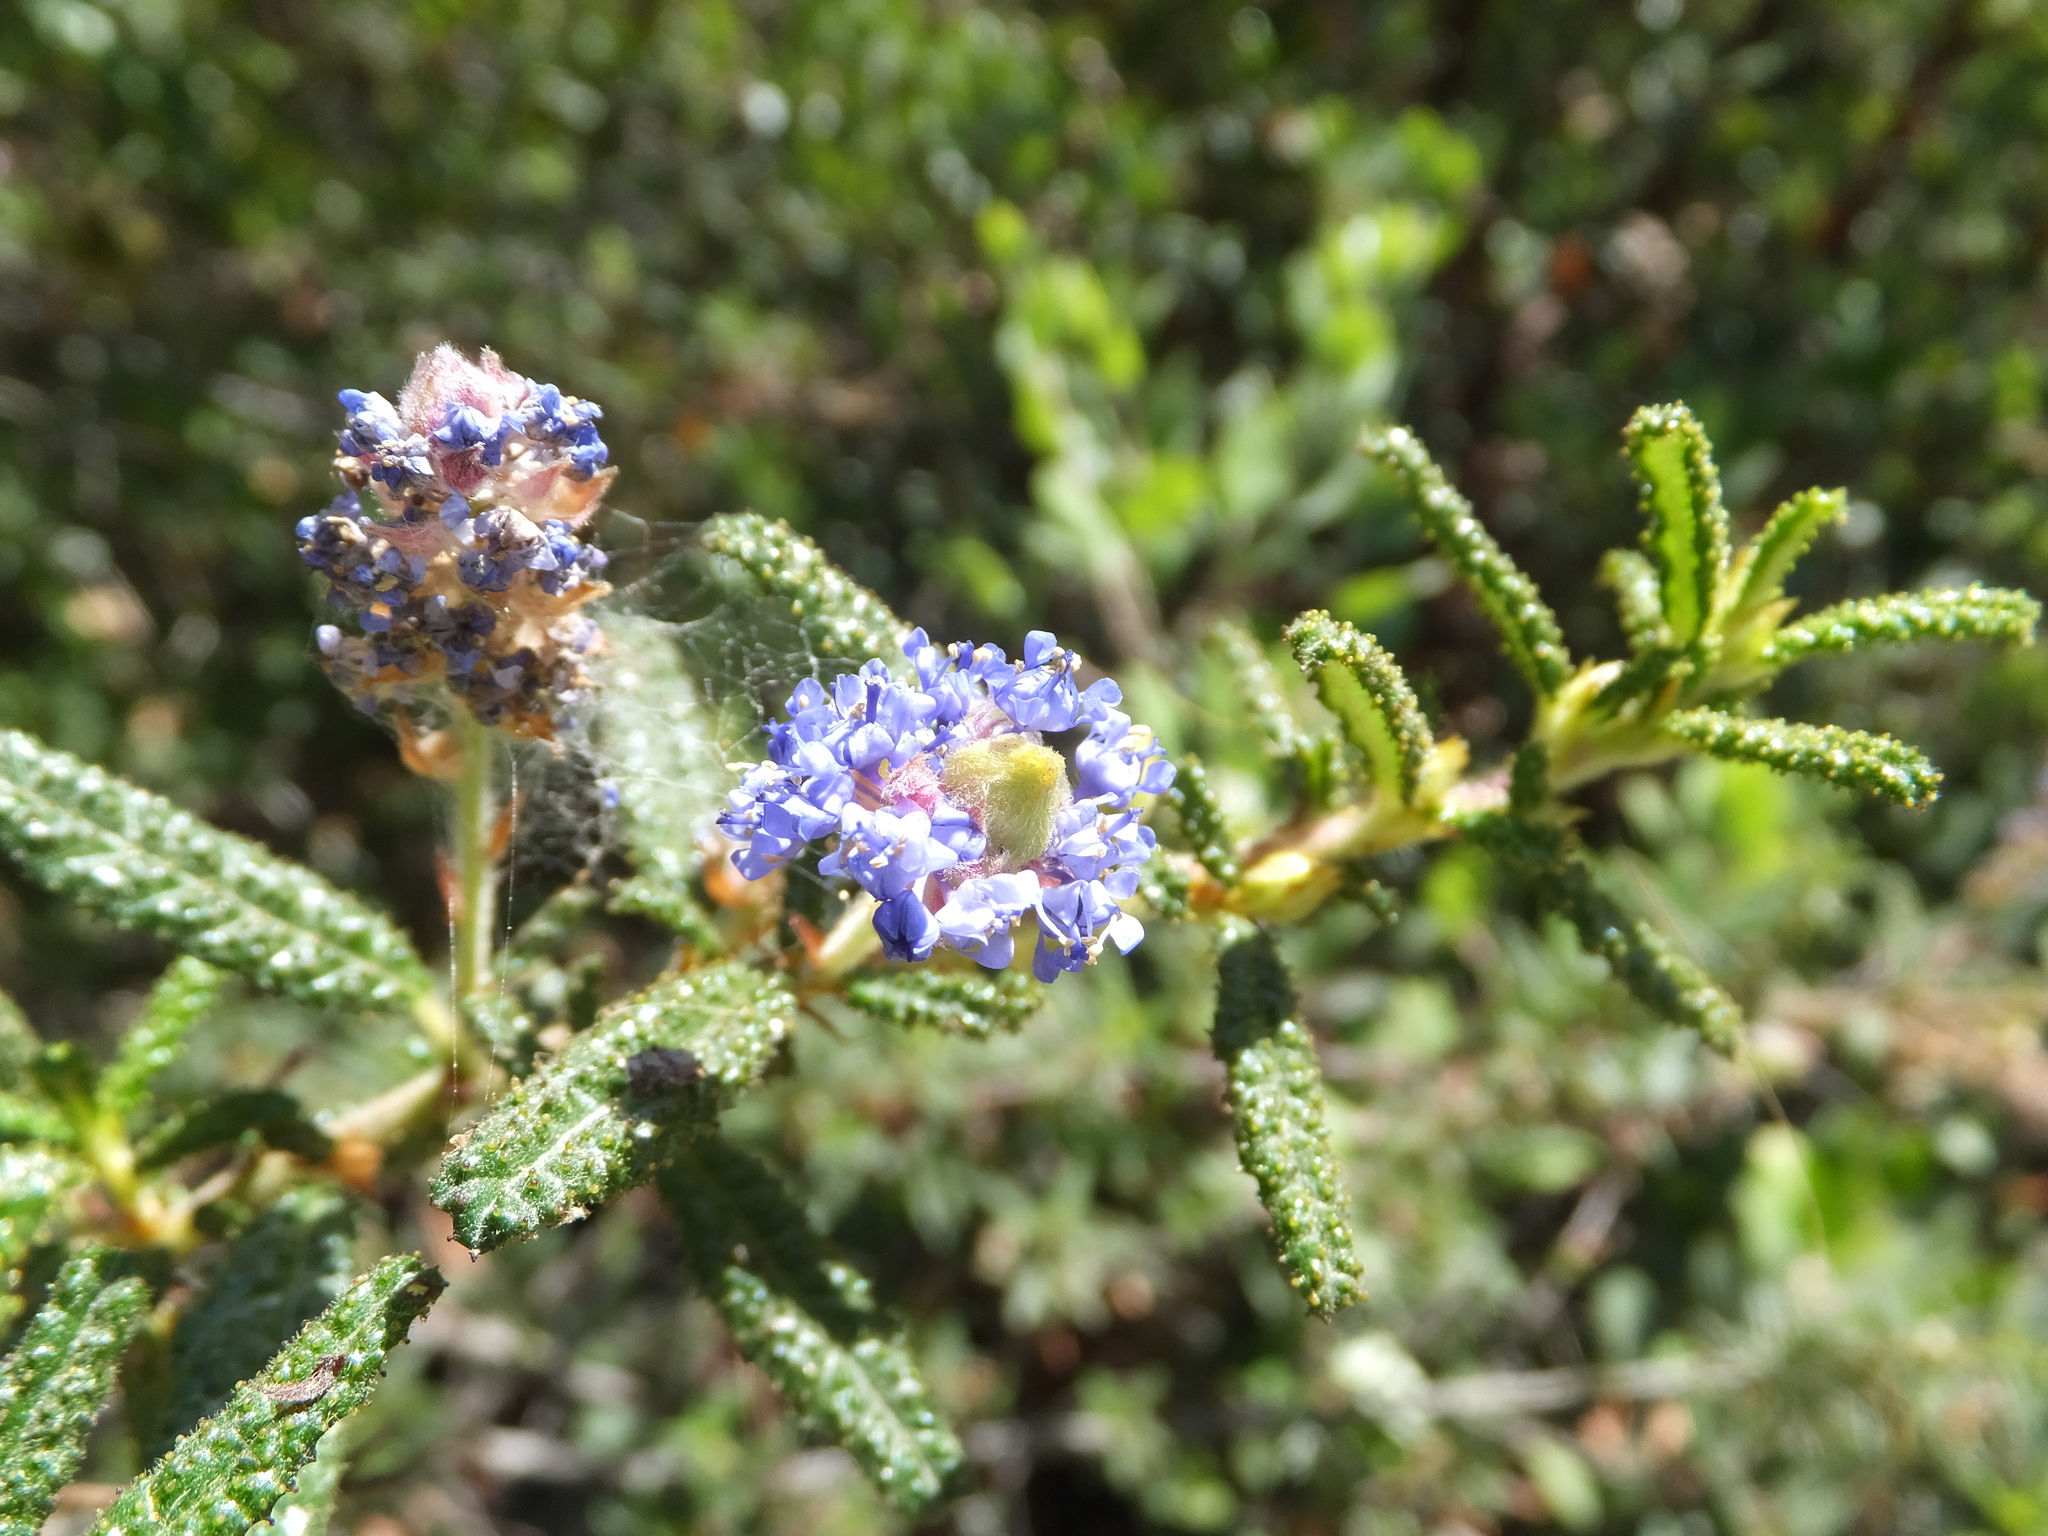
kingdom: Plantae
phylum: Tracheophyta
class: Magnoliopsida
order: Rosales
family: Rhamnaceae
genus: Ceanothus
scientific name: Ceanothus papillosus
